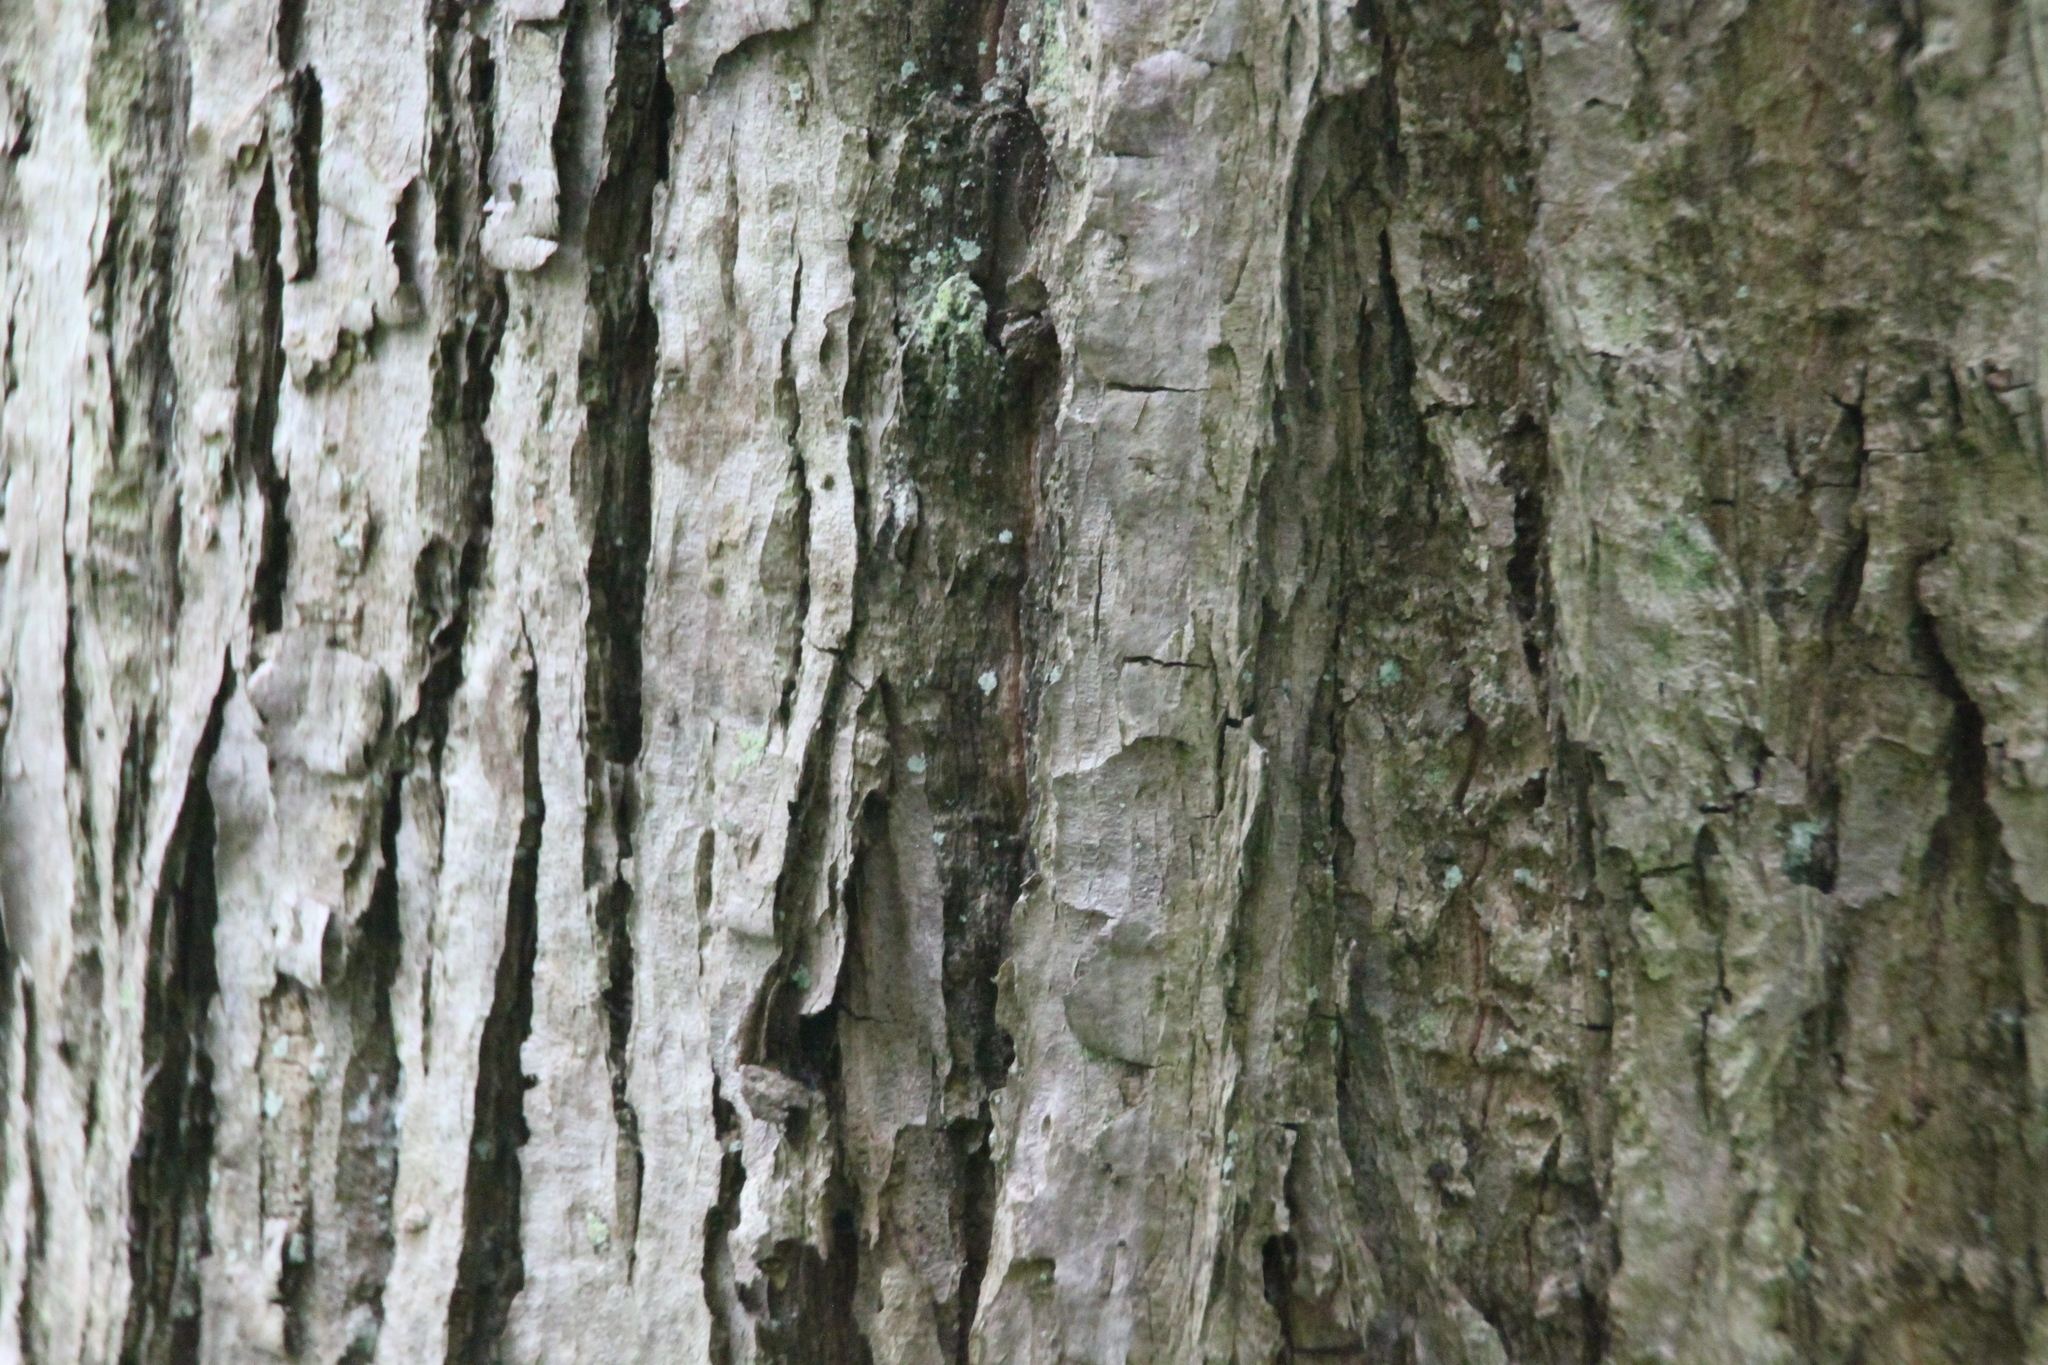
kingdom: Plantae
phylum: Tracheophyta
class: Magnoliopsida
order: Malvales
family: Malvaceae
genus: Tilia
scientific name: Tilia cordata
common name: Small-leaved lime
